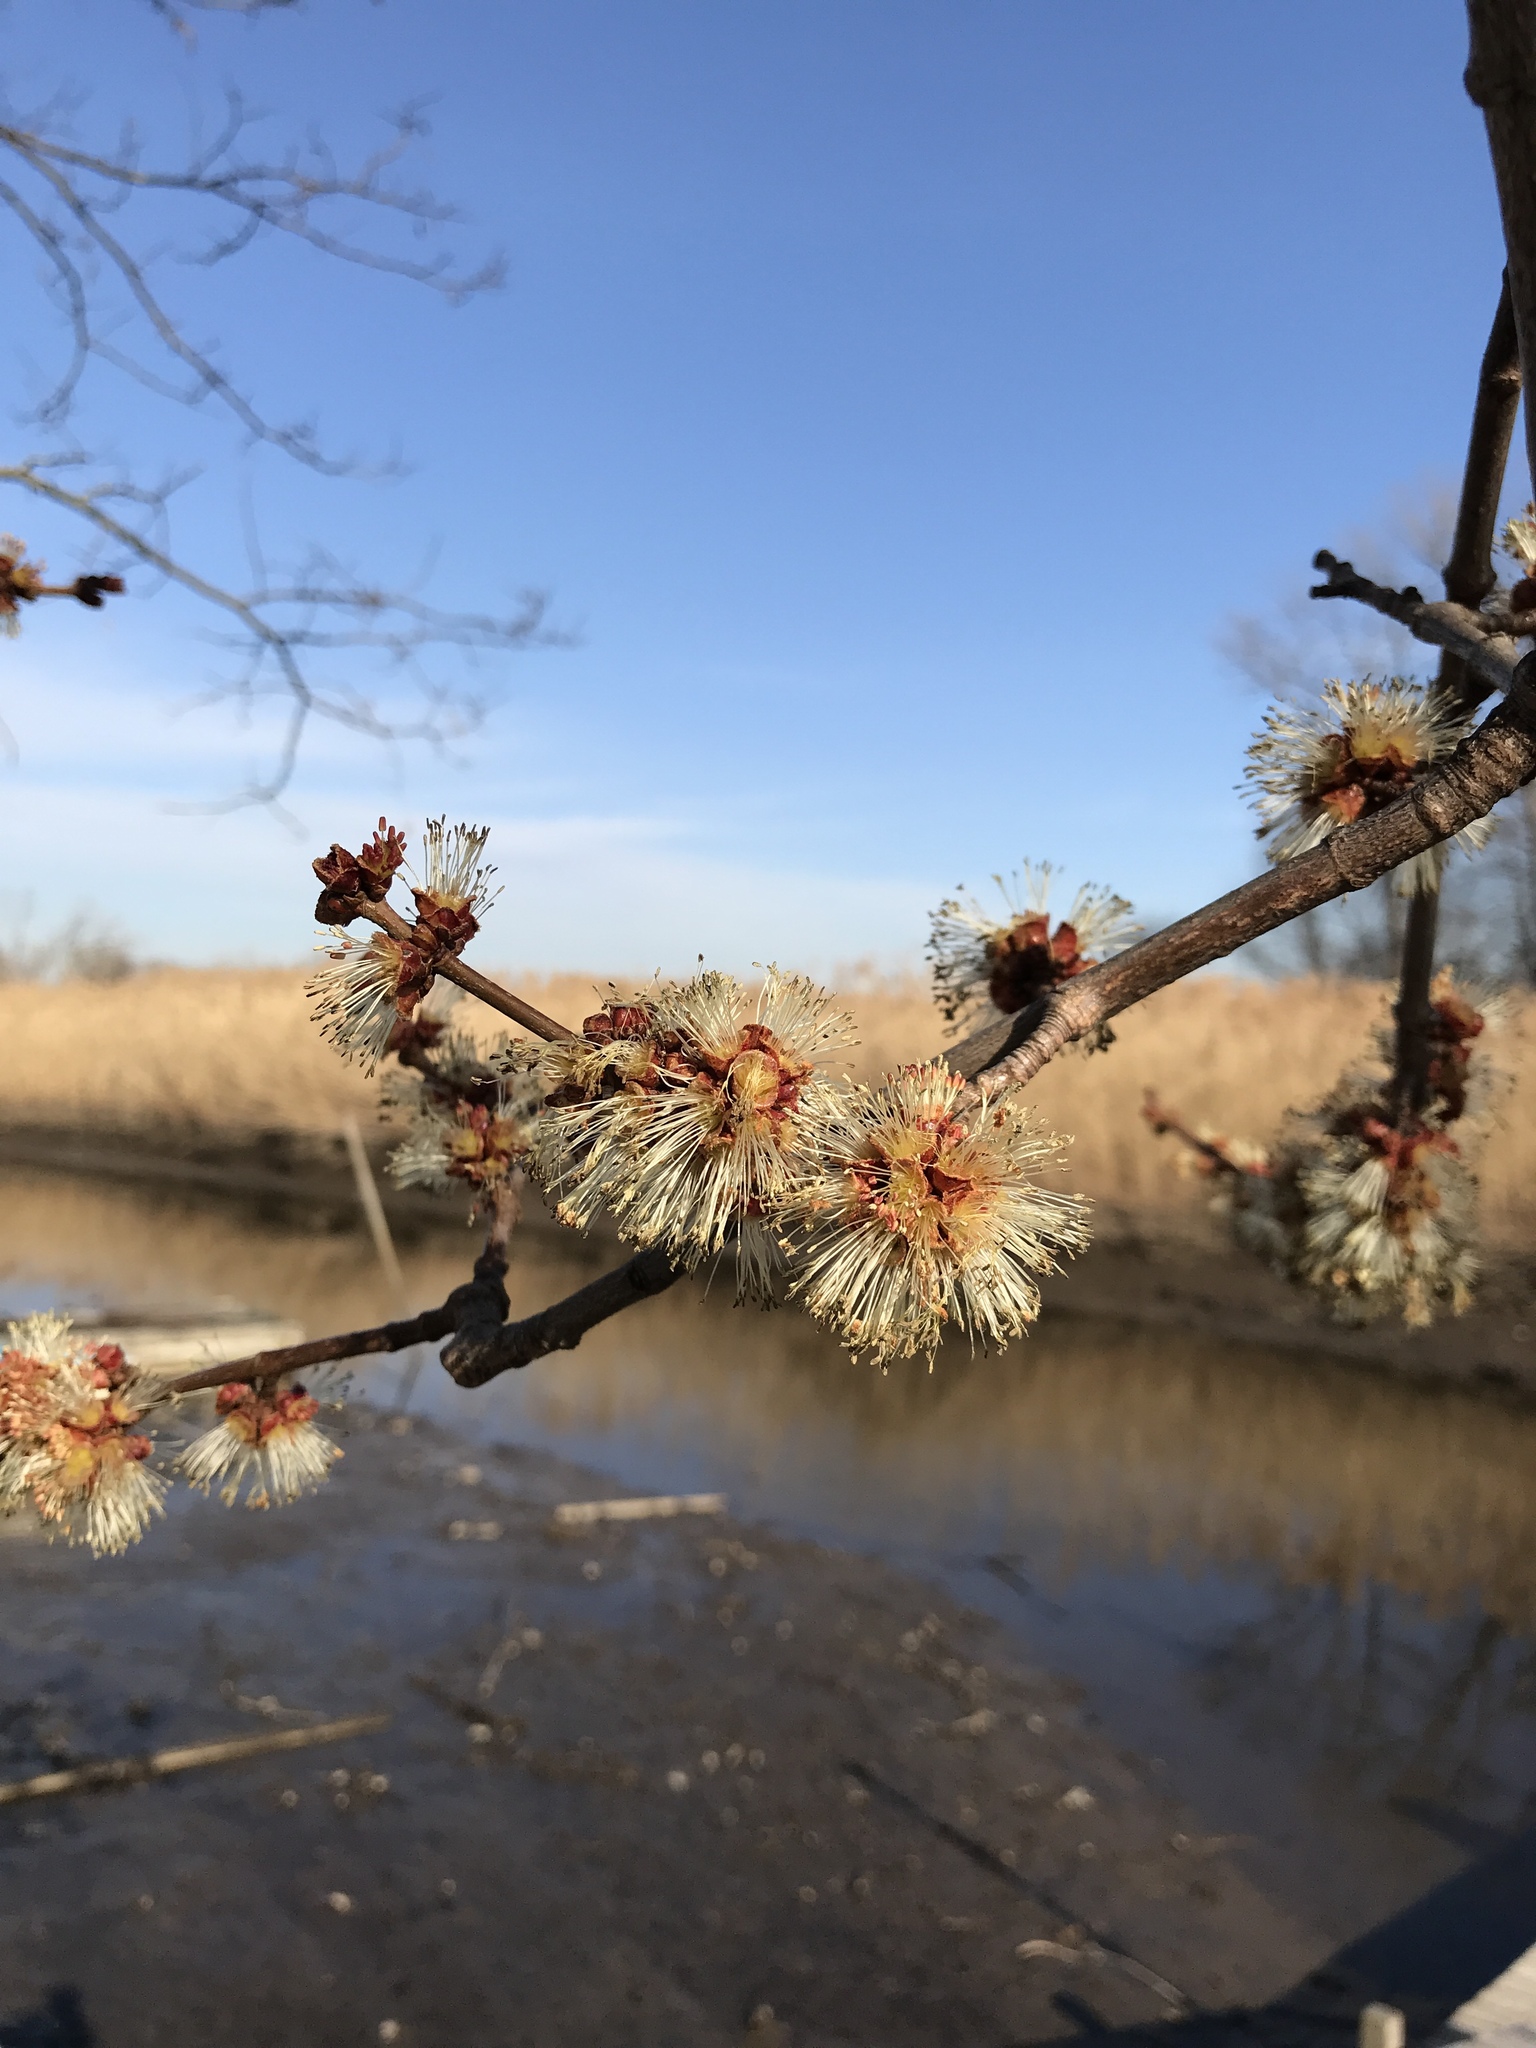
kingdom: Plantae
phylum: Tracheophyta
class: Magnoliopsida
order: Sapindales
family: Sapindaceae
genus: Acer
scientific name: Acer rubrum
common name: Red maple
